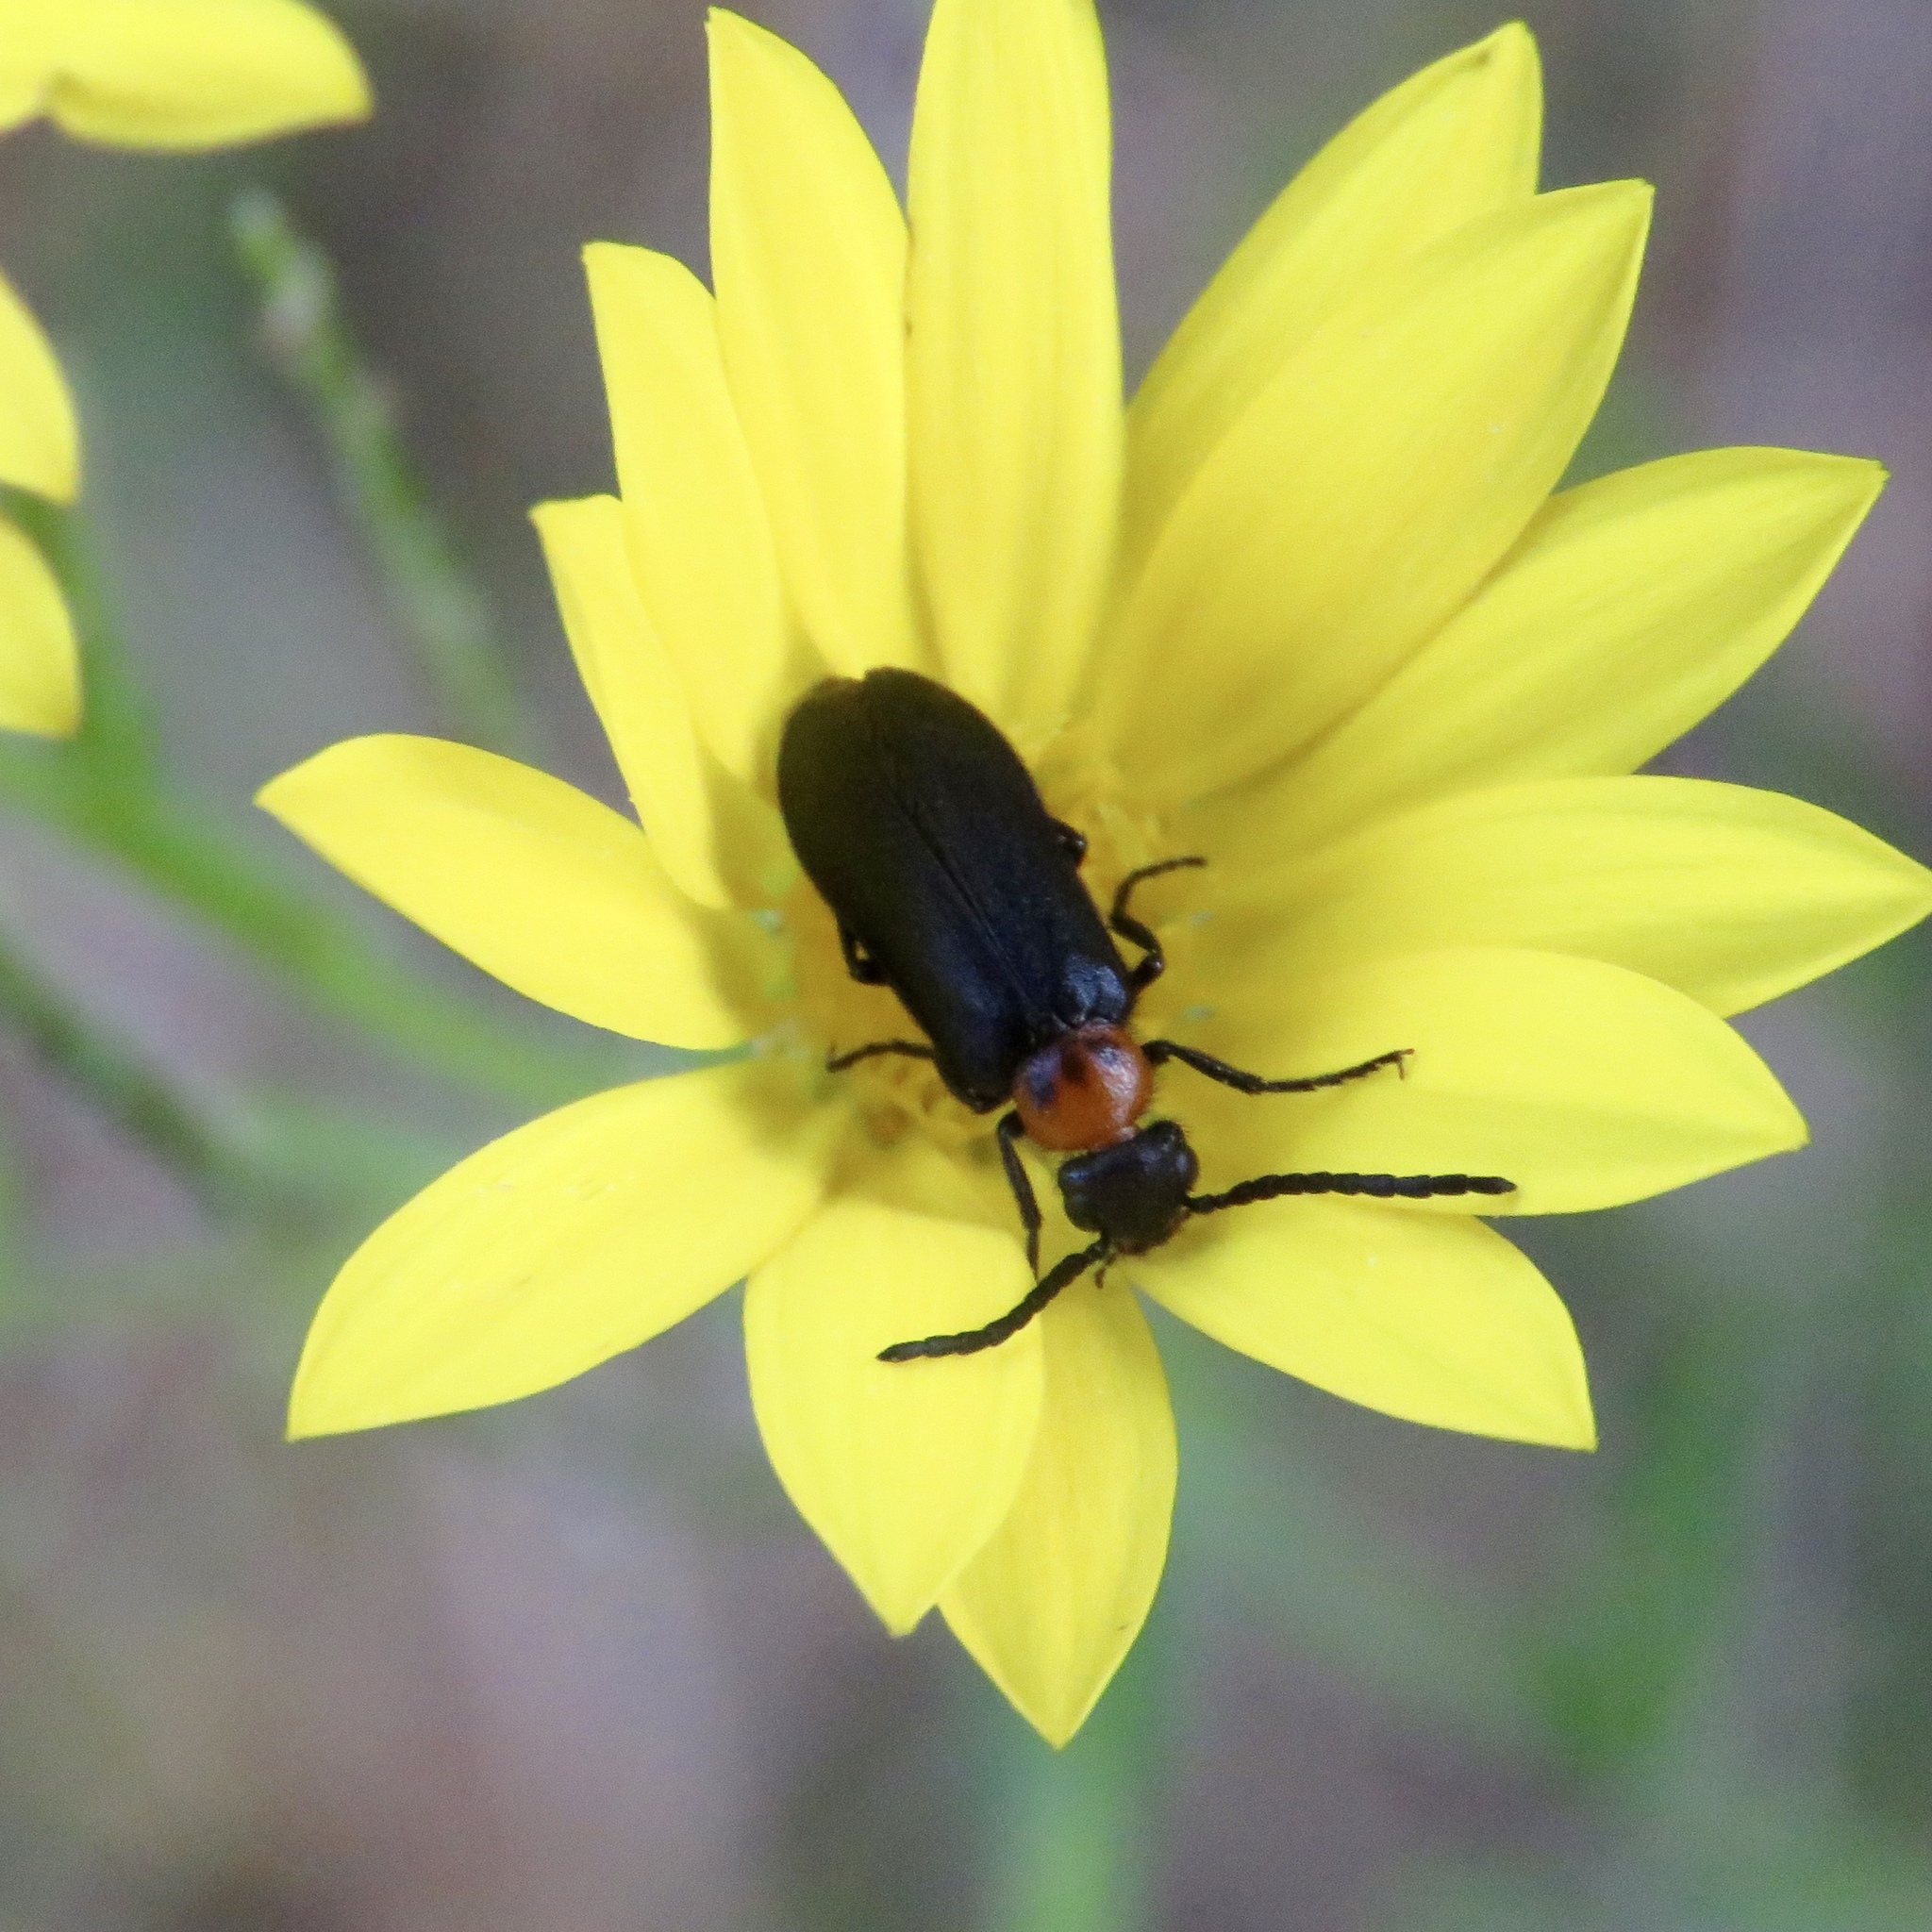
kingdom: Animalia
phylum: Arthropoda
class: Insecta
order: Coleoptera
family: Meloidae
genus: Nemognatha
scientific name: Nemognatha nemorensis
